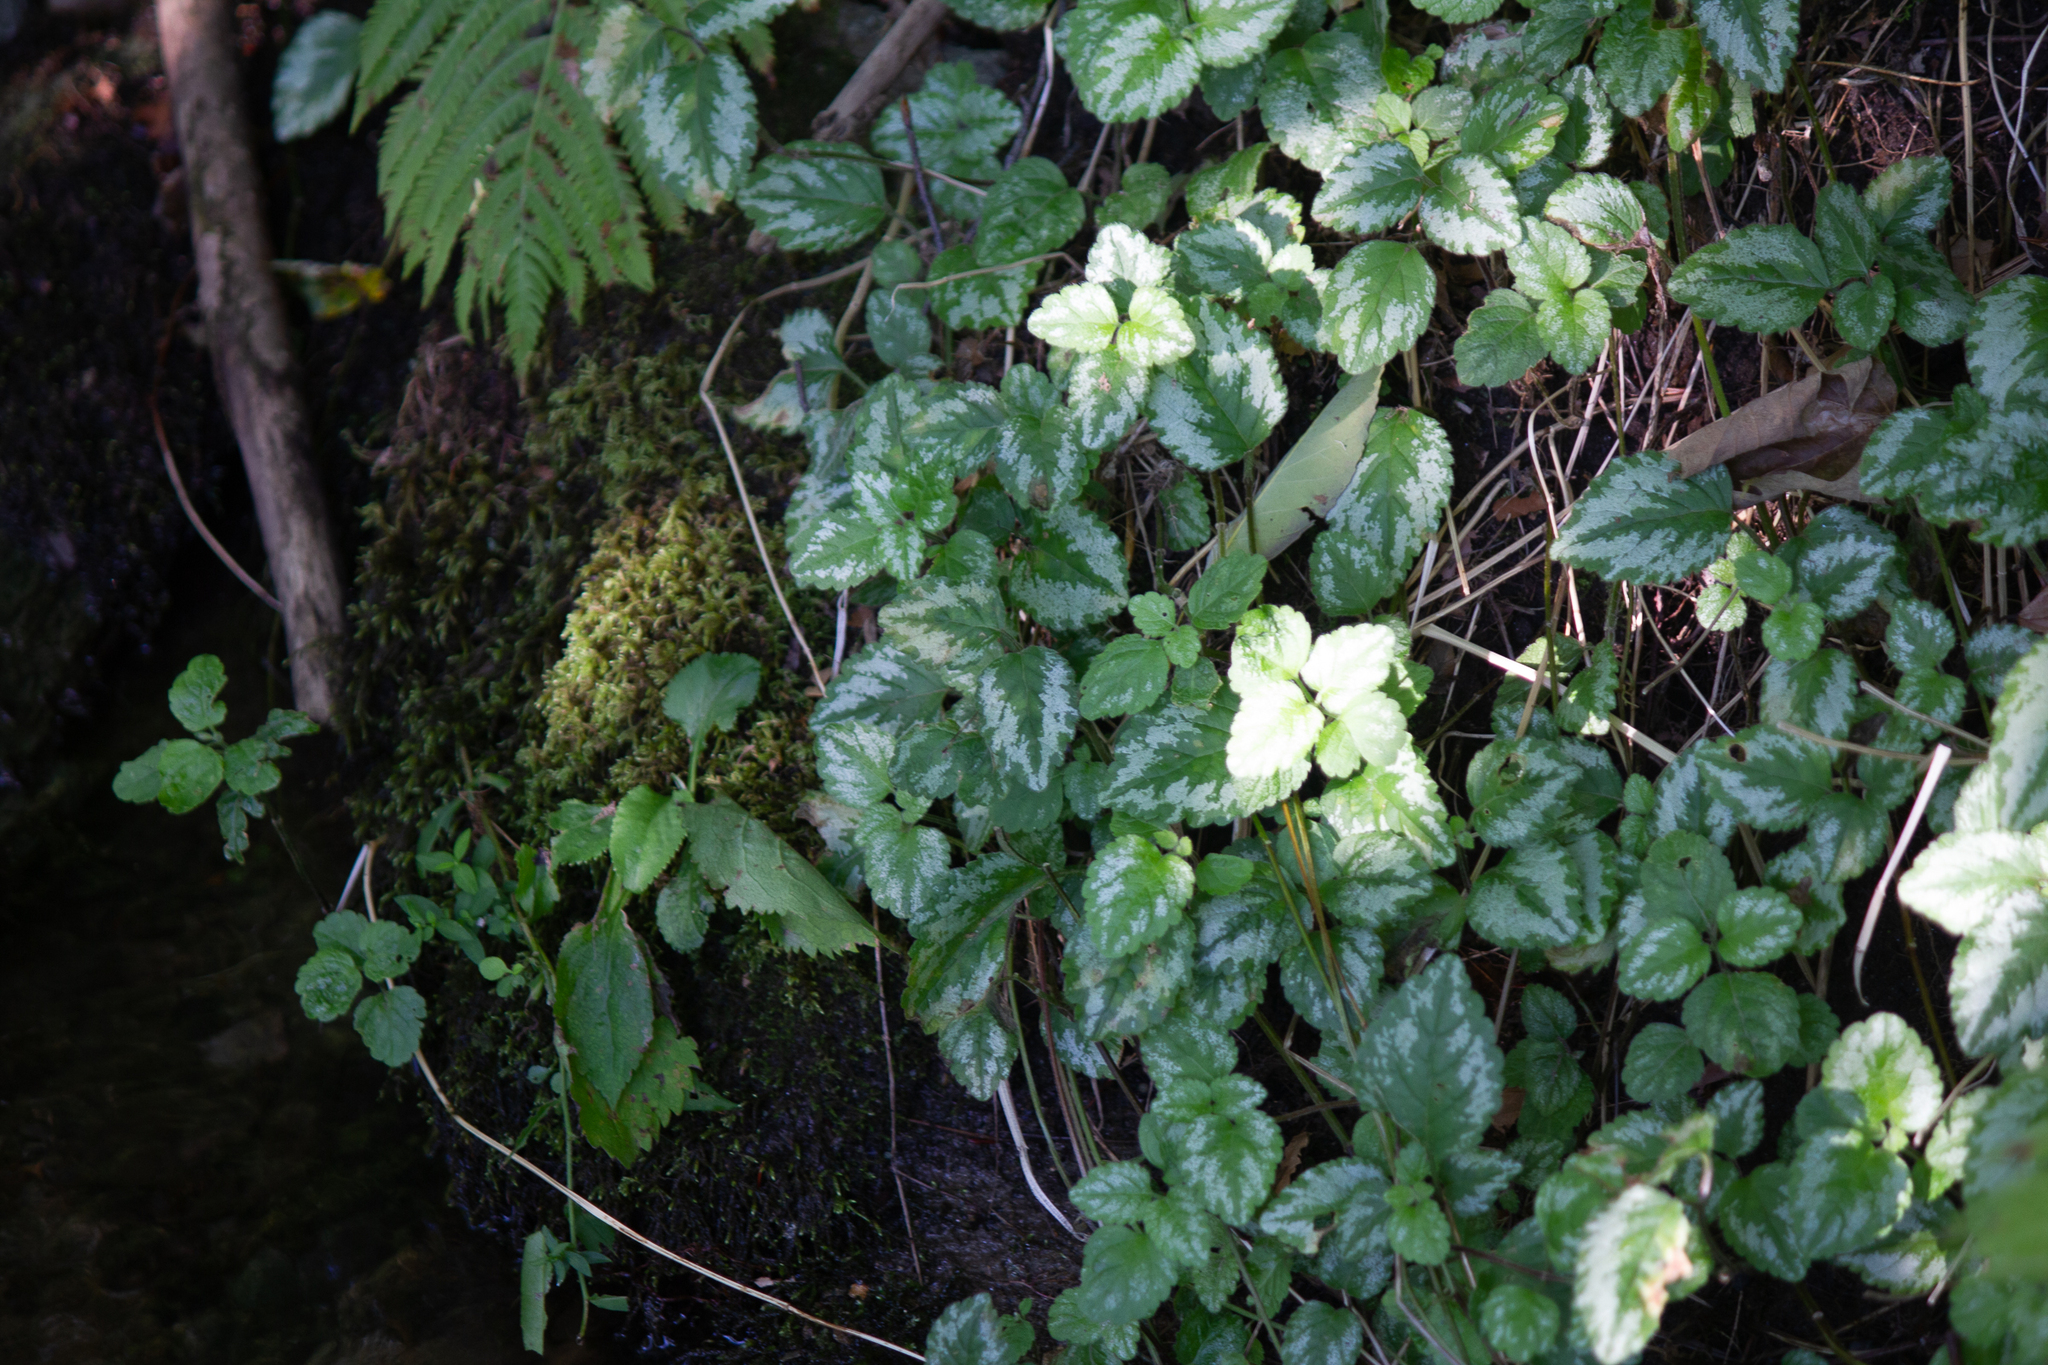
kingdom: Plantae
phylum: Tracheophyta
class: Magnoliopsida
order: Lamiales
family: Lamiaceae
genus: Lamium
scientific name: Lamium galeobdolon
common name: Yellow archangel
